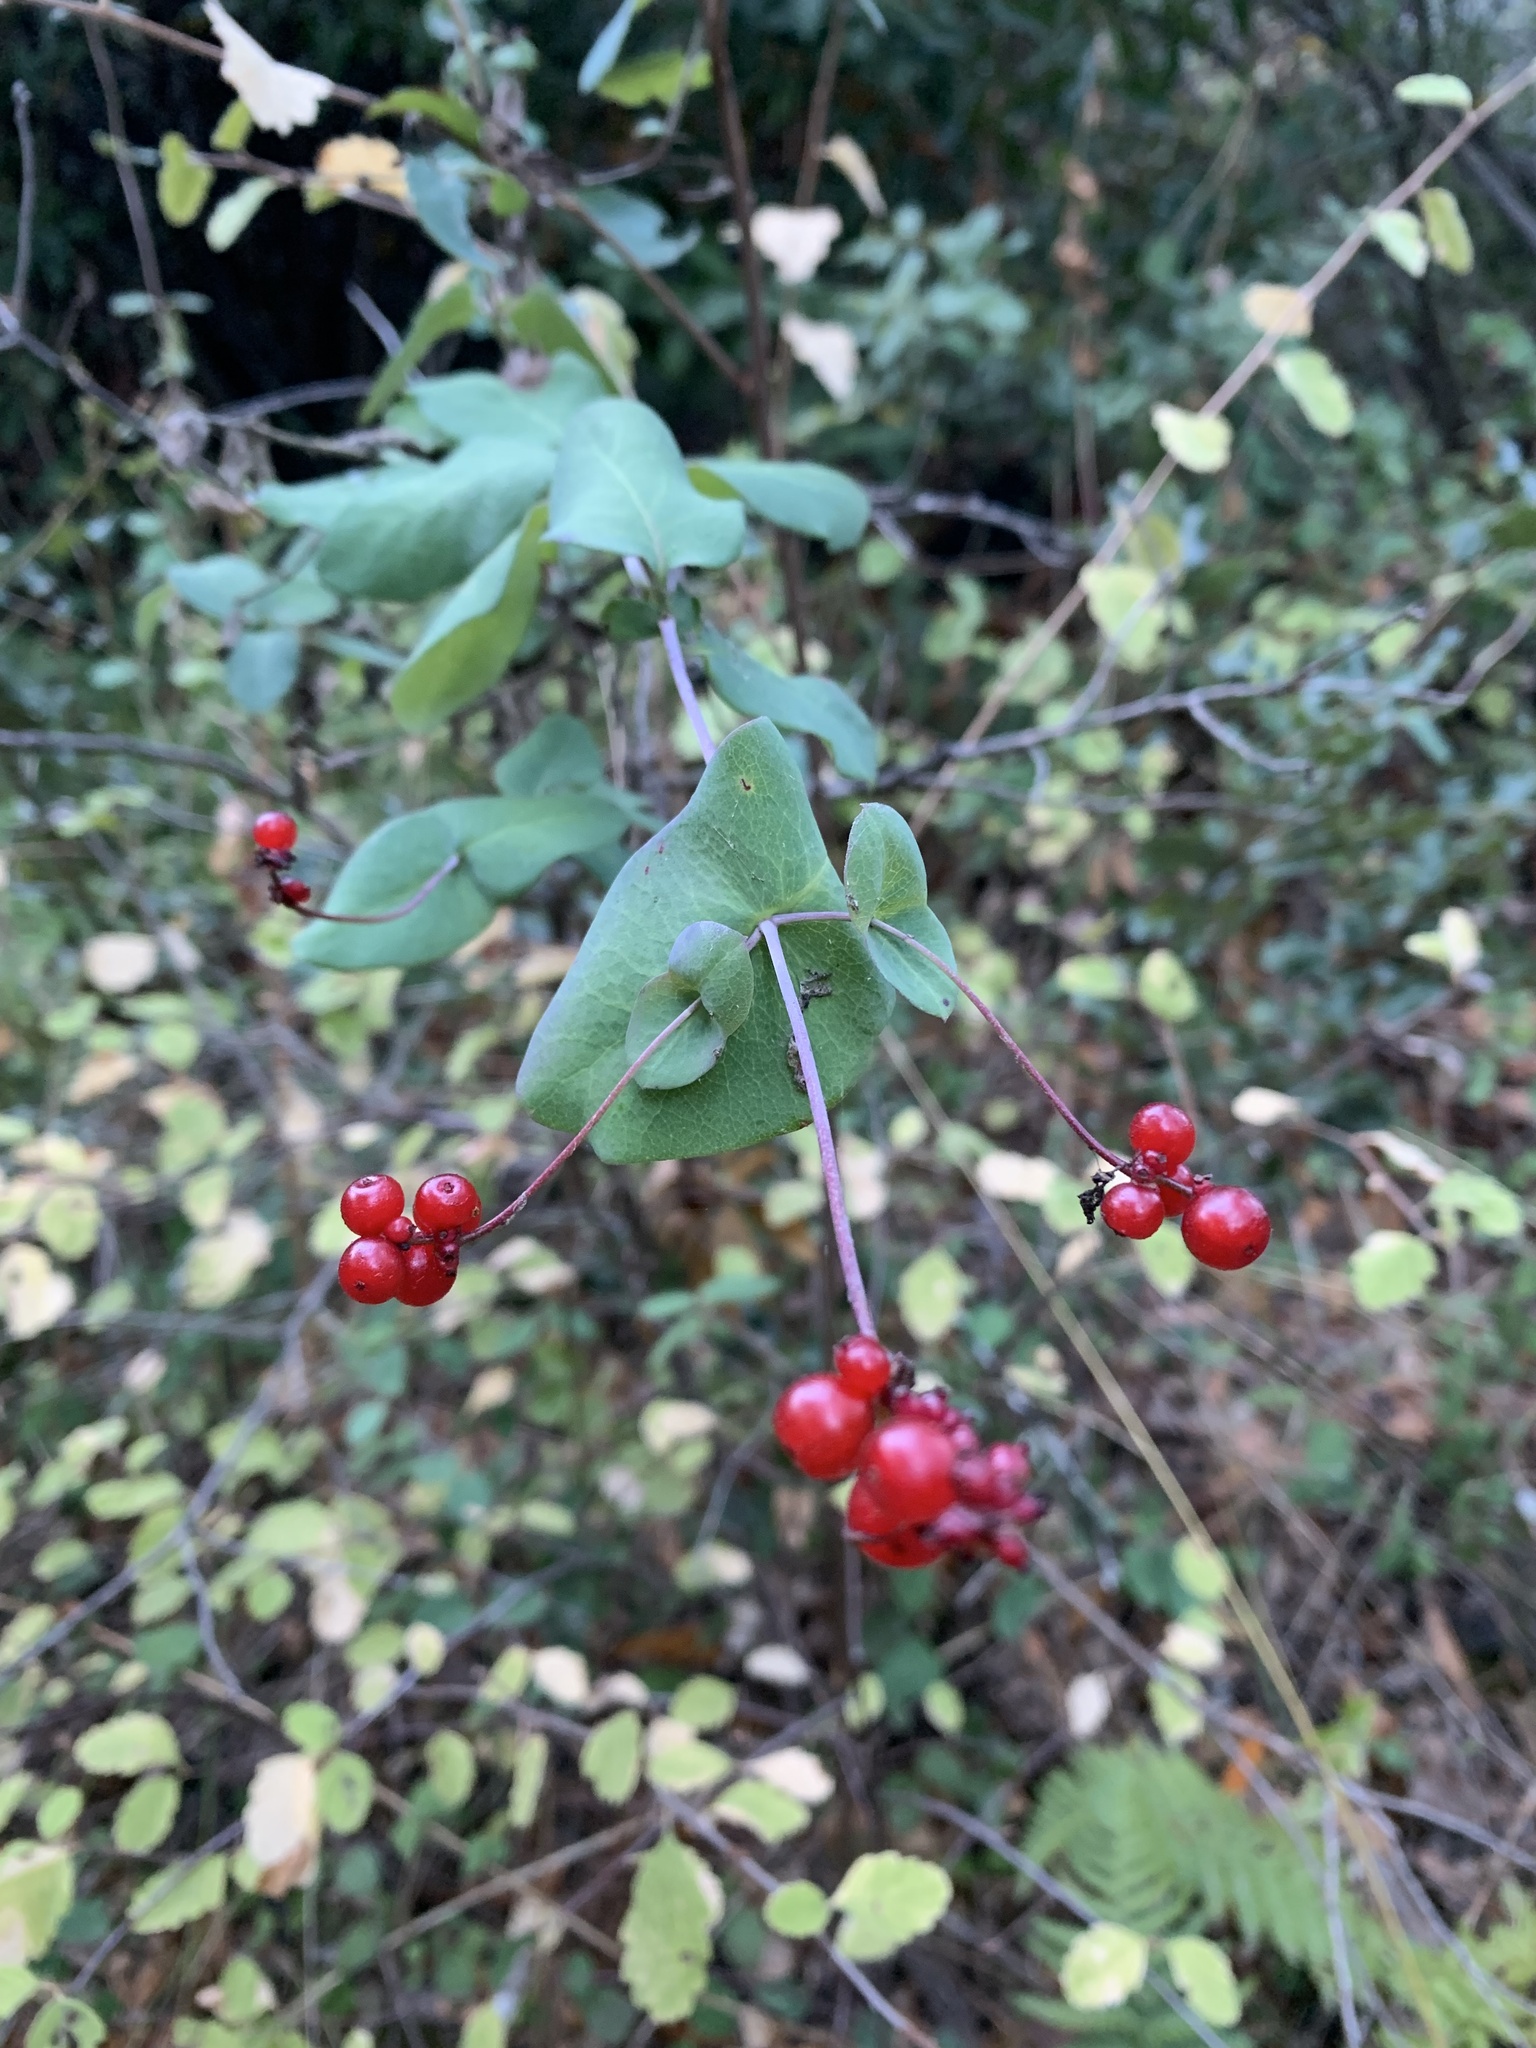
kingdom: Plantae
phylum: Tracheophyta
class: Magnoliopsida
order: Dipsacales
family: Caprifoliaceae
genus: Lonicera
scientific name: Lonicera hispidula
